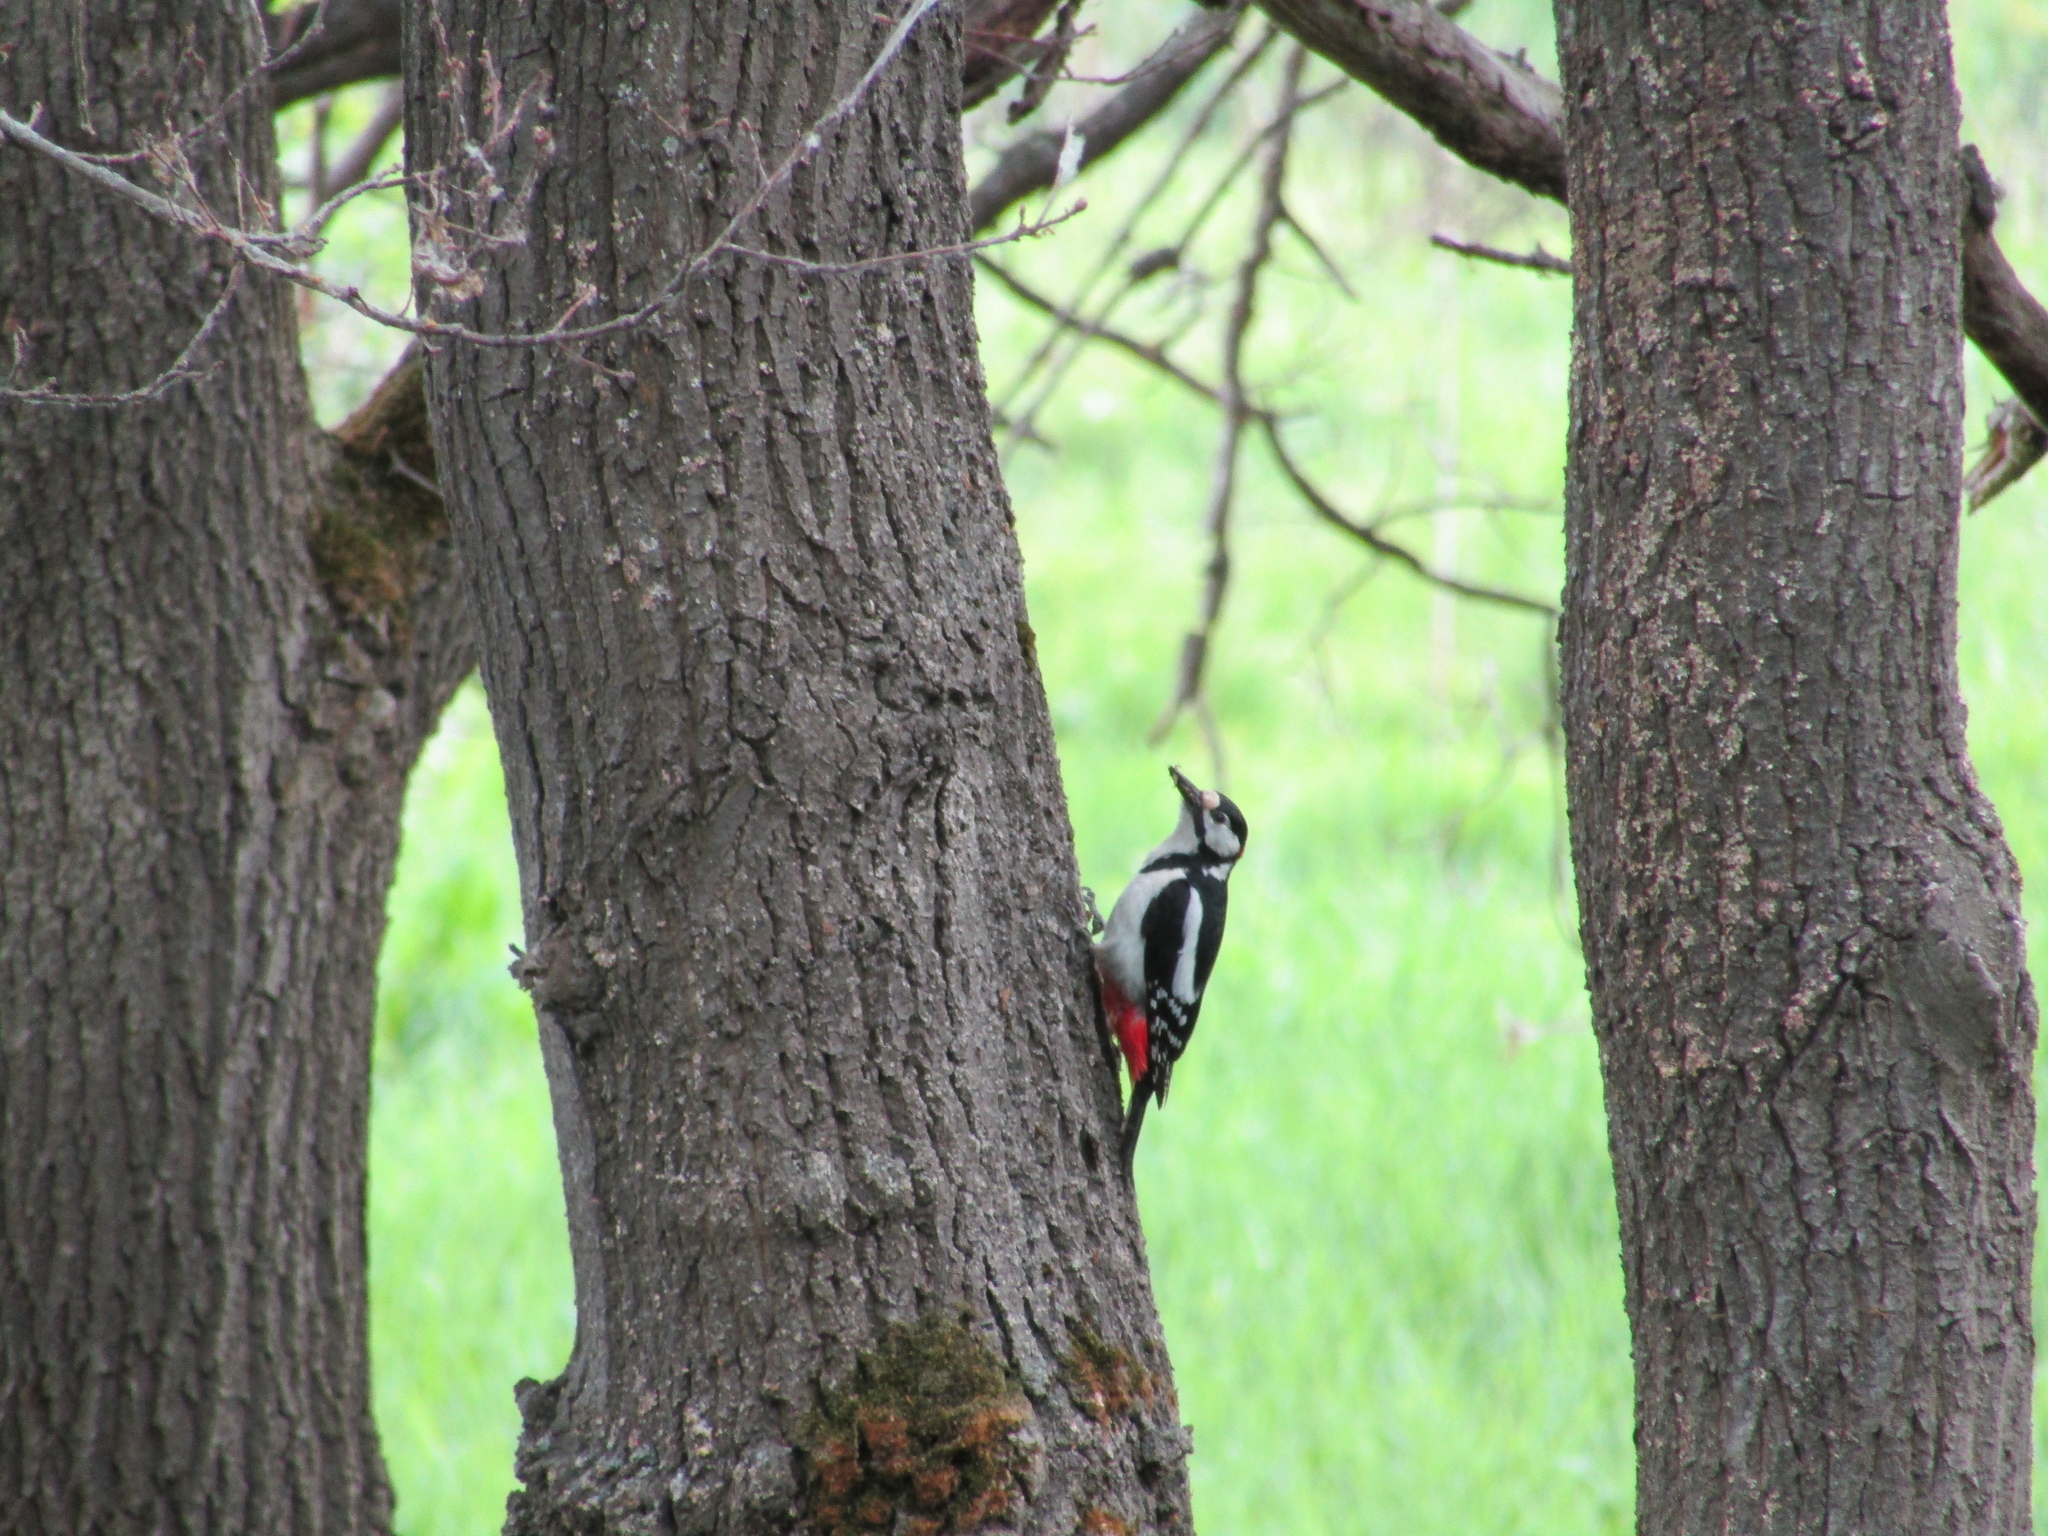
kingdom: Animalia
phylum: Chordata
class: Aves
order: Piciformes
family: Picidae
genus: Dendrocopos
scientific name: Dendrocopos major
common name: Great spotted woodpecker
